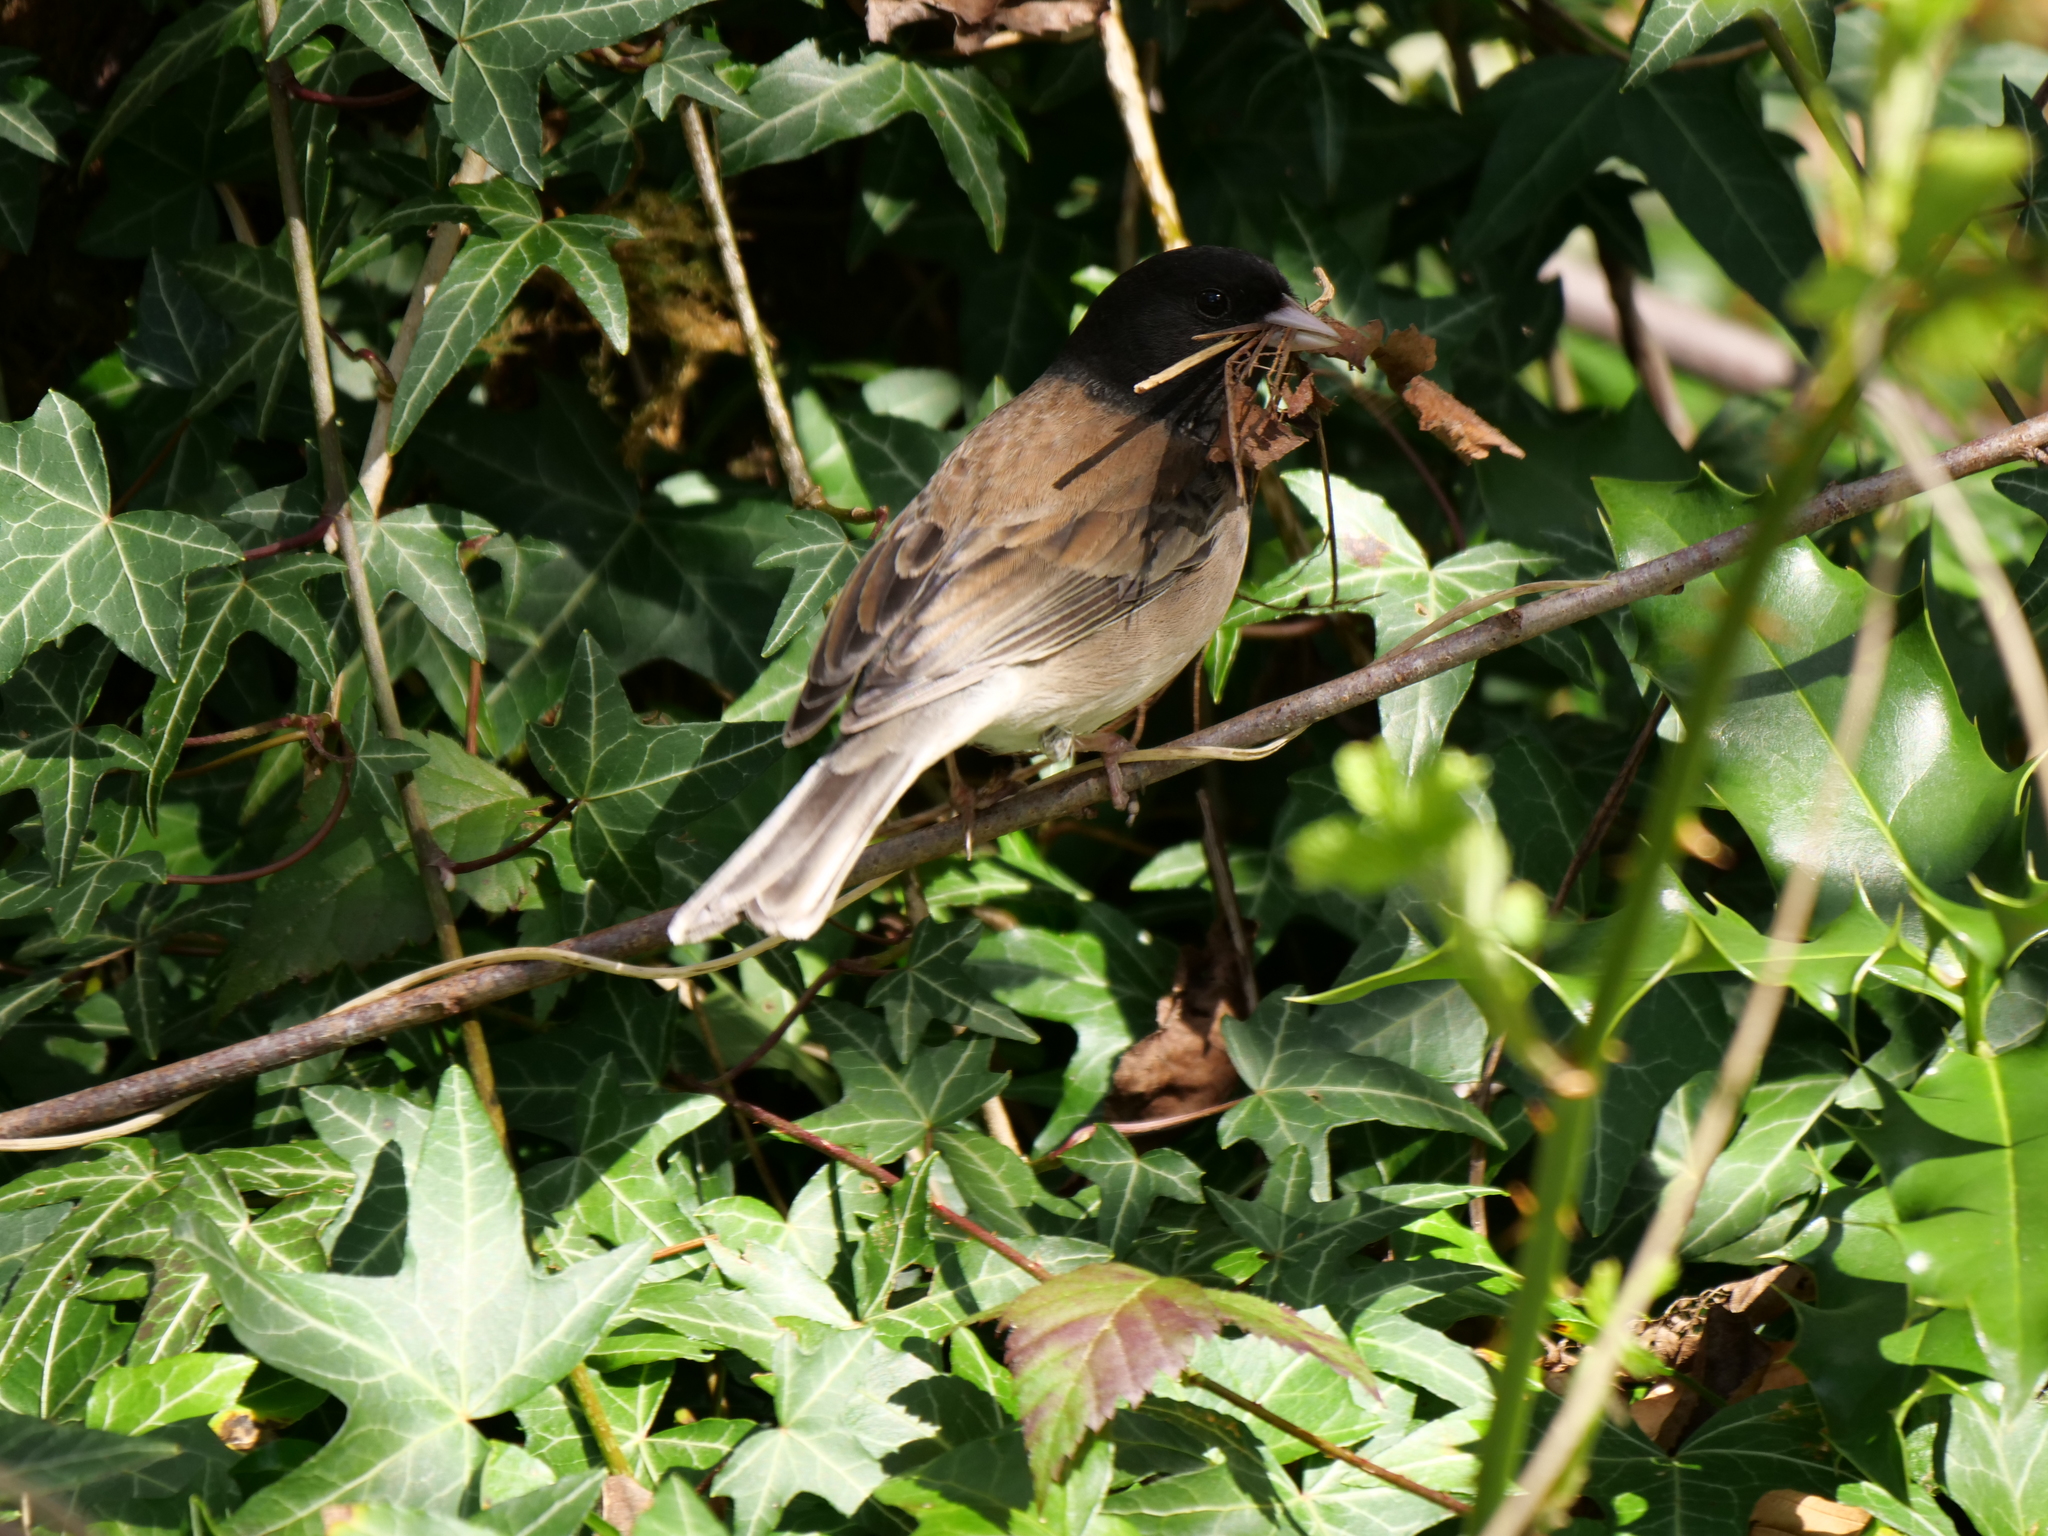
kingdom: Animalia
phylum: Chordata
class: Aves
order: Passeriformes
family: Passerellidae
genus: Junco
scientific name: Junco hyemalis
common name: Dark-eyed junco
